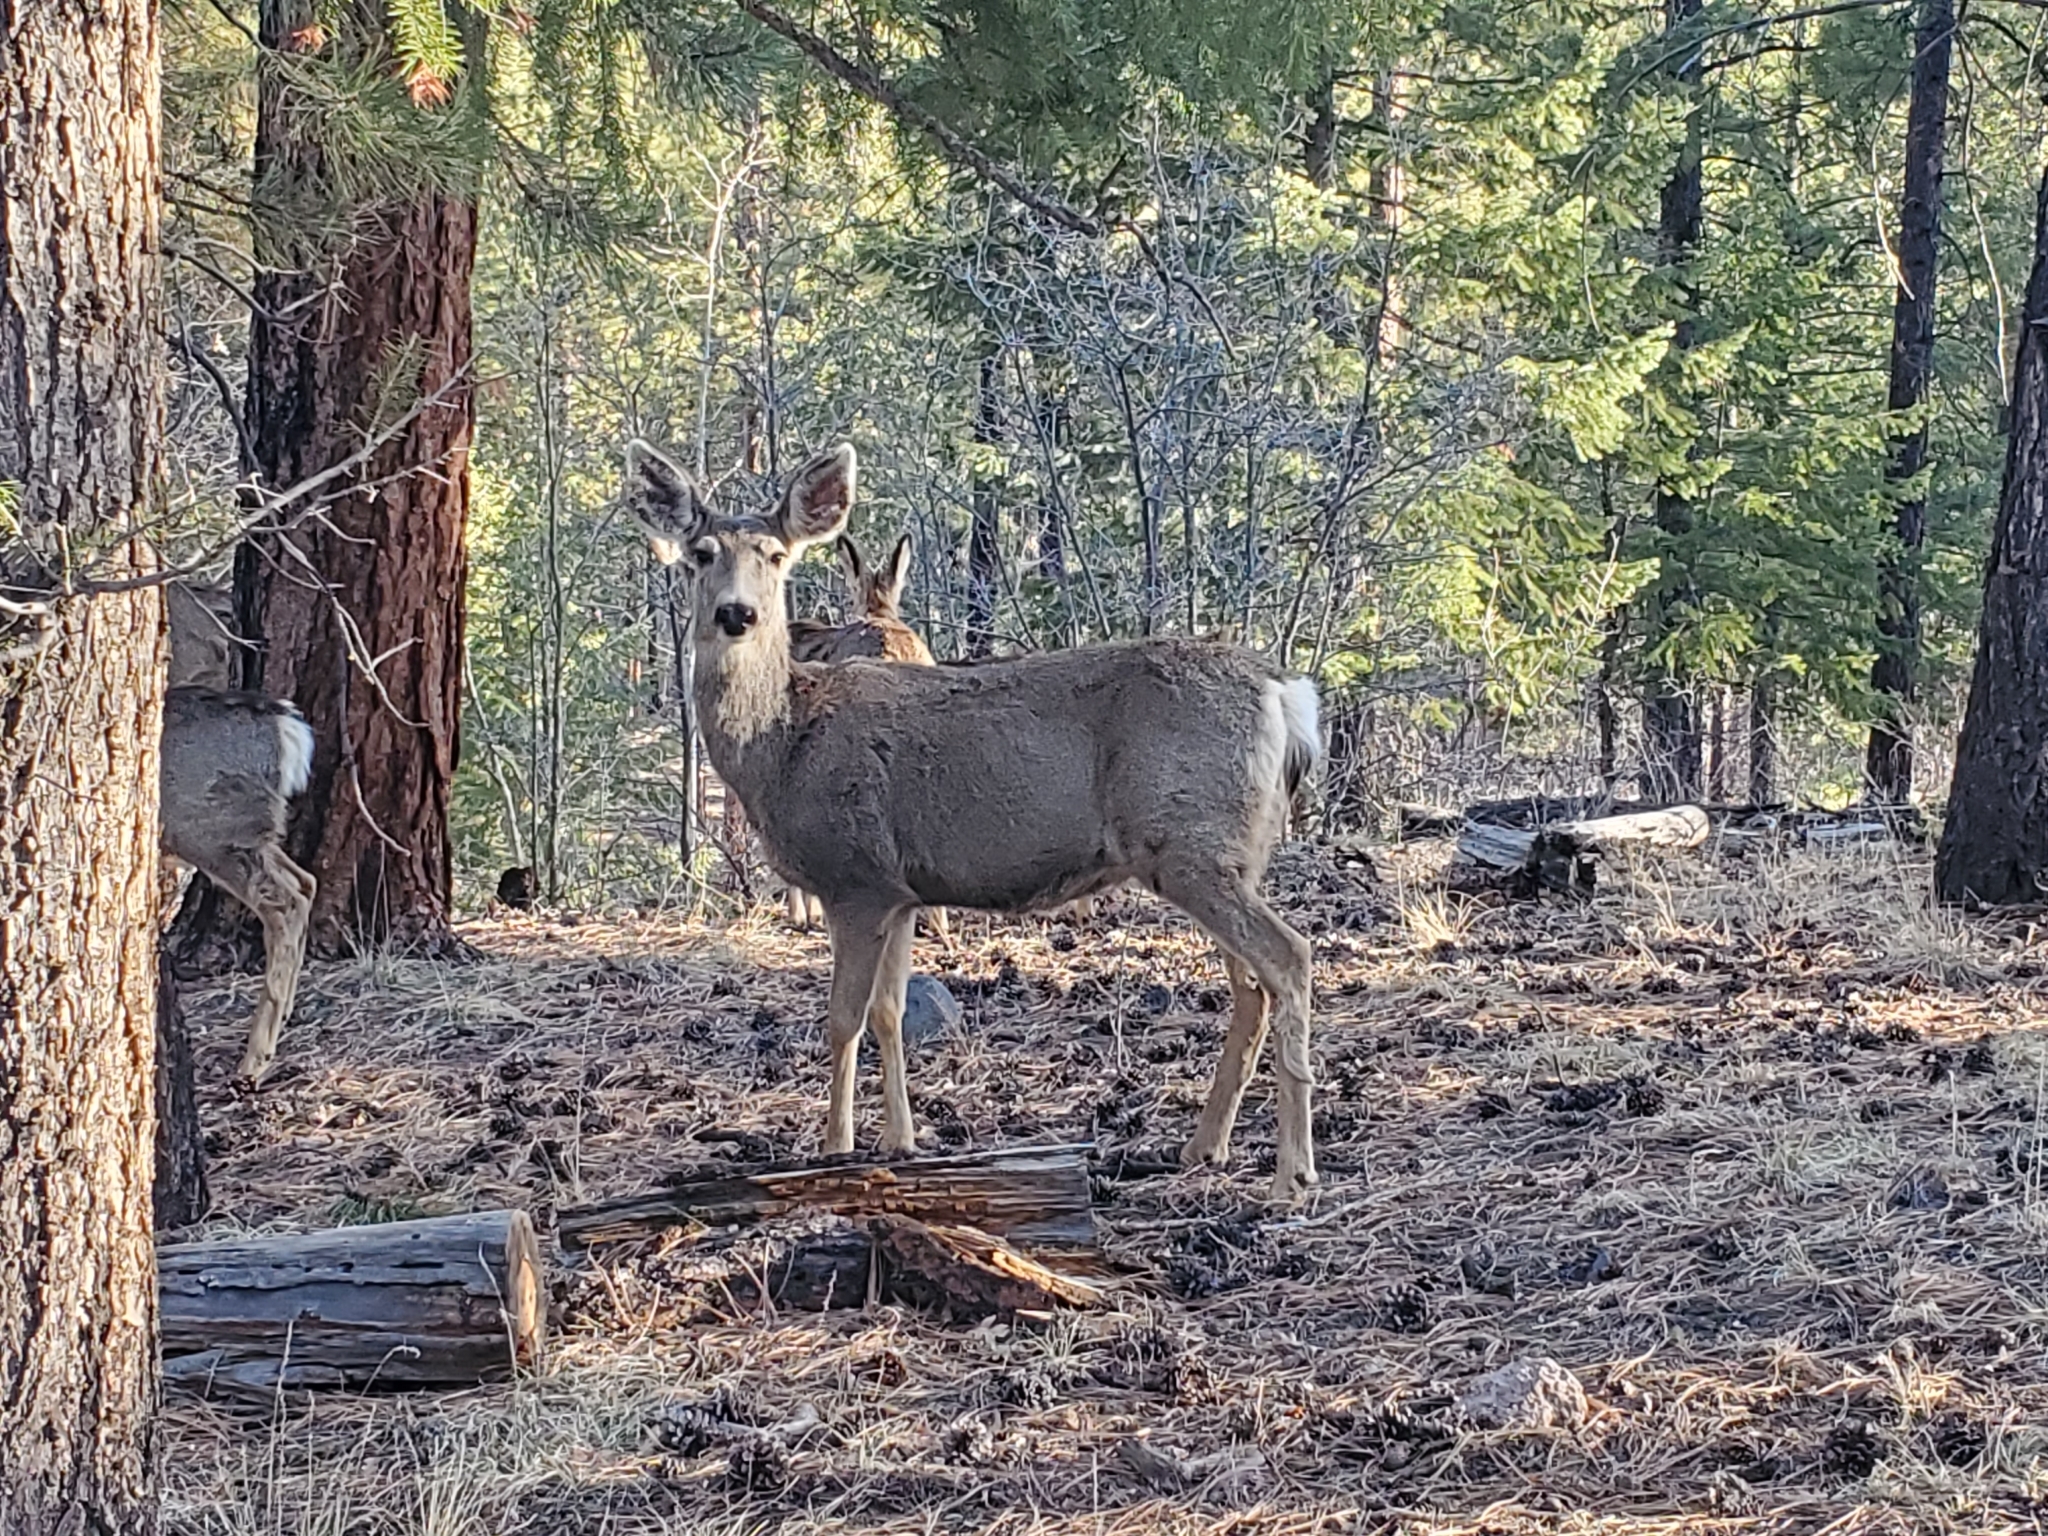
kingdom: Animalia
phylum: Chordata
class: Mammalia
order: Artiodactyla
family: Cervidae
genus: Odocoileus
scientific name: Odocoileus hemionus
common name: Mule deer
